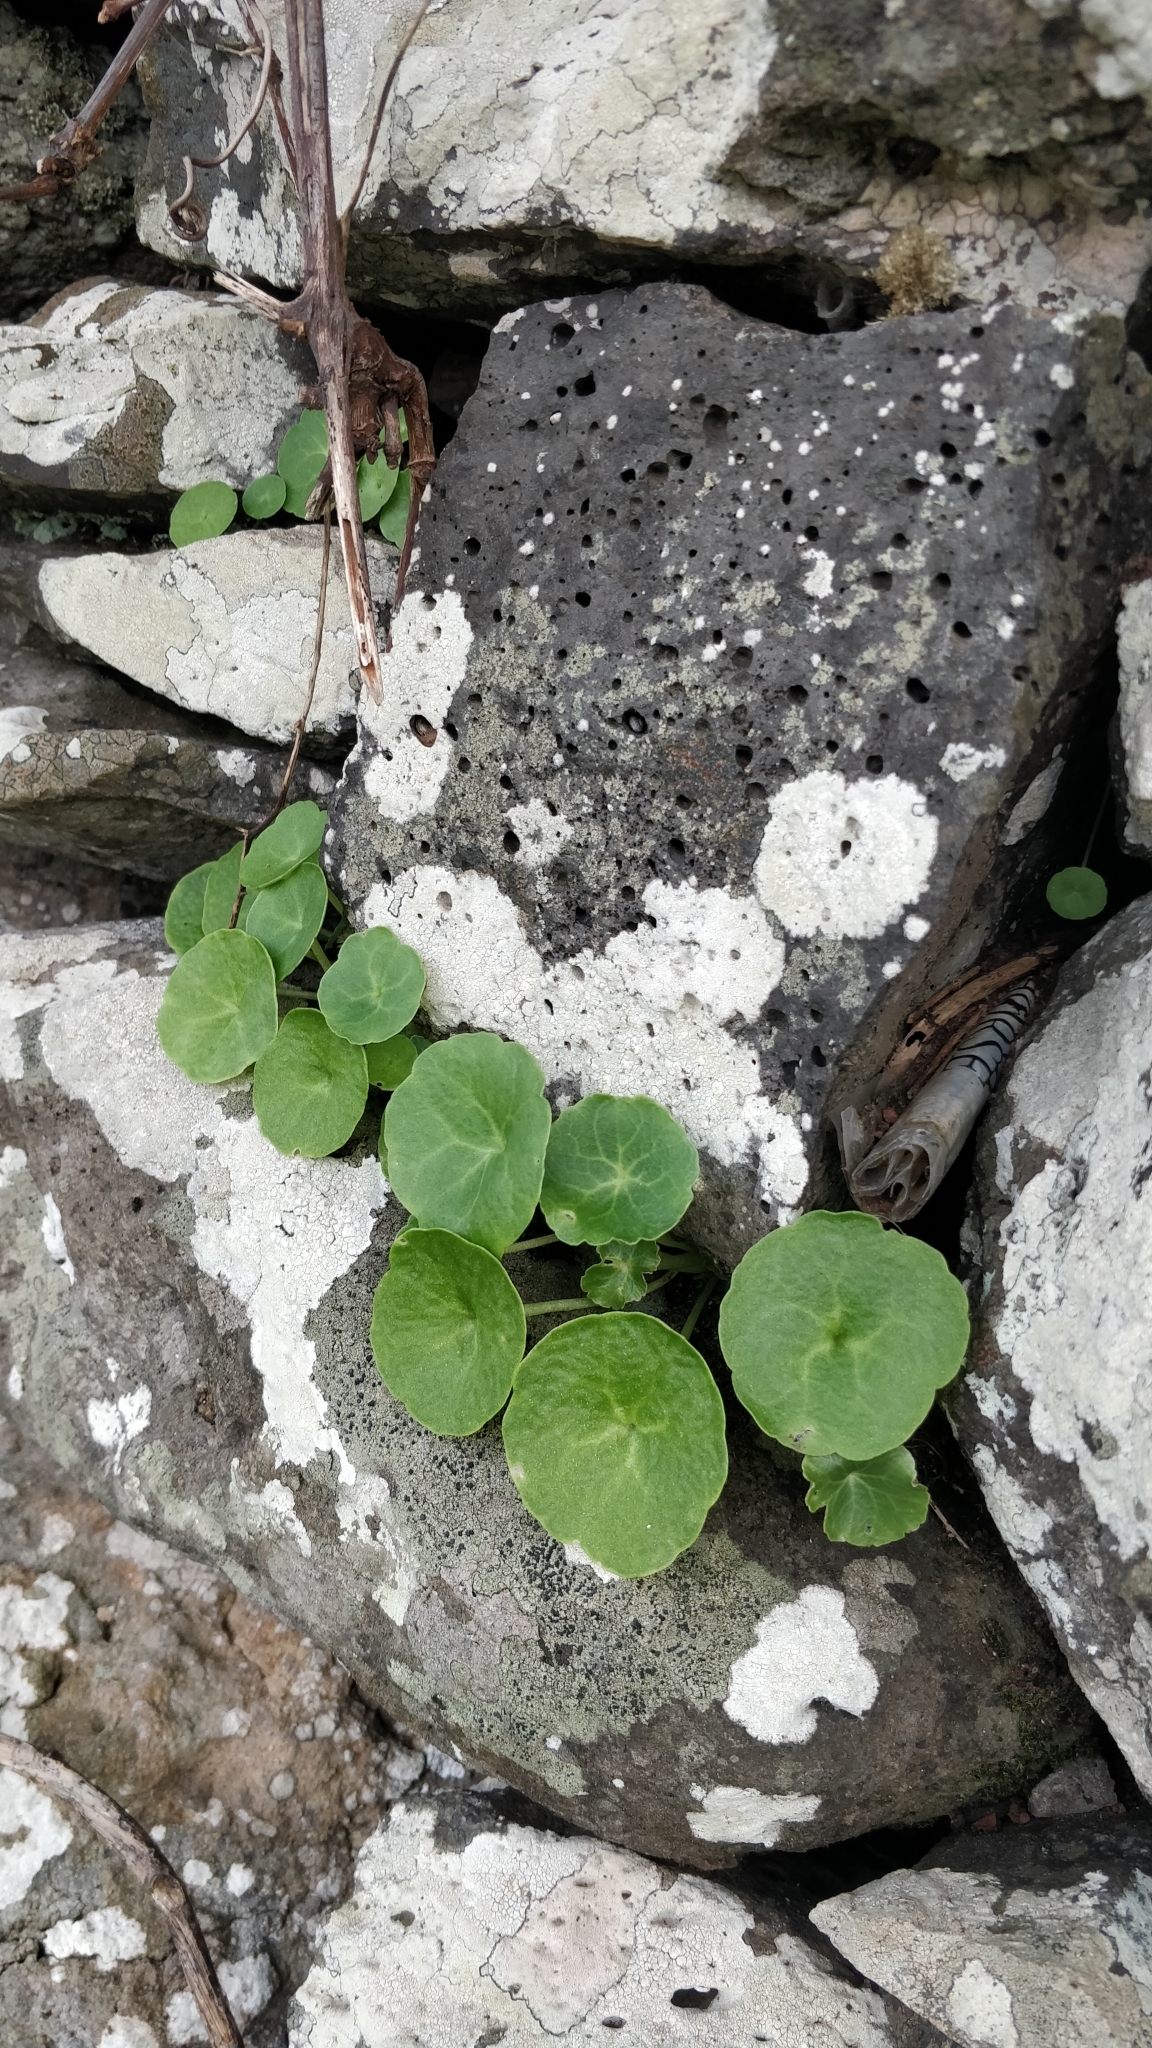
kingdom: Plantae
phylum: Tracheophyta
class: Magnoliopsida
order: Saxifragales
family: Crassulaceae
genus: Umbilicus
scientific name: Umbilicus rupestris
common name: Navelwort
